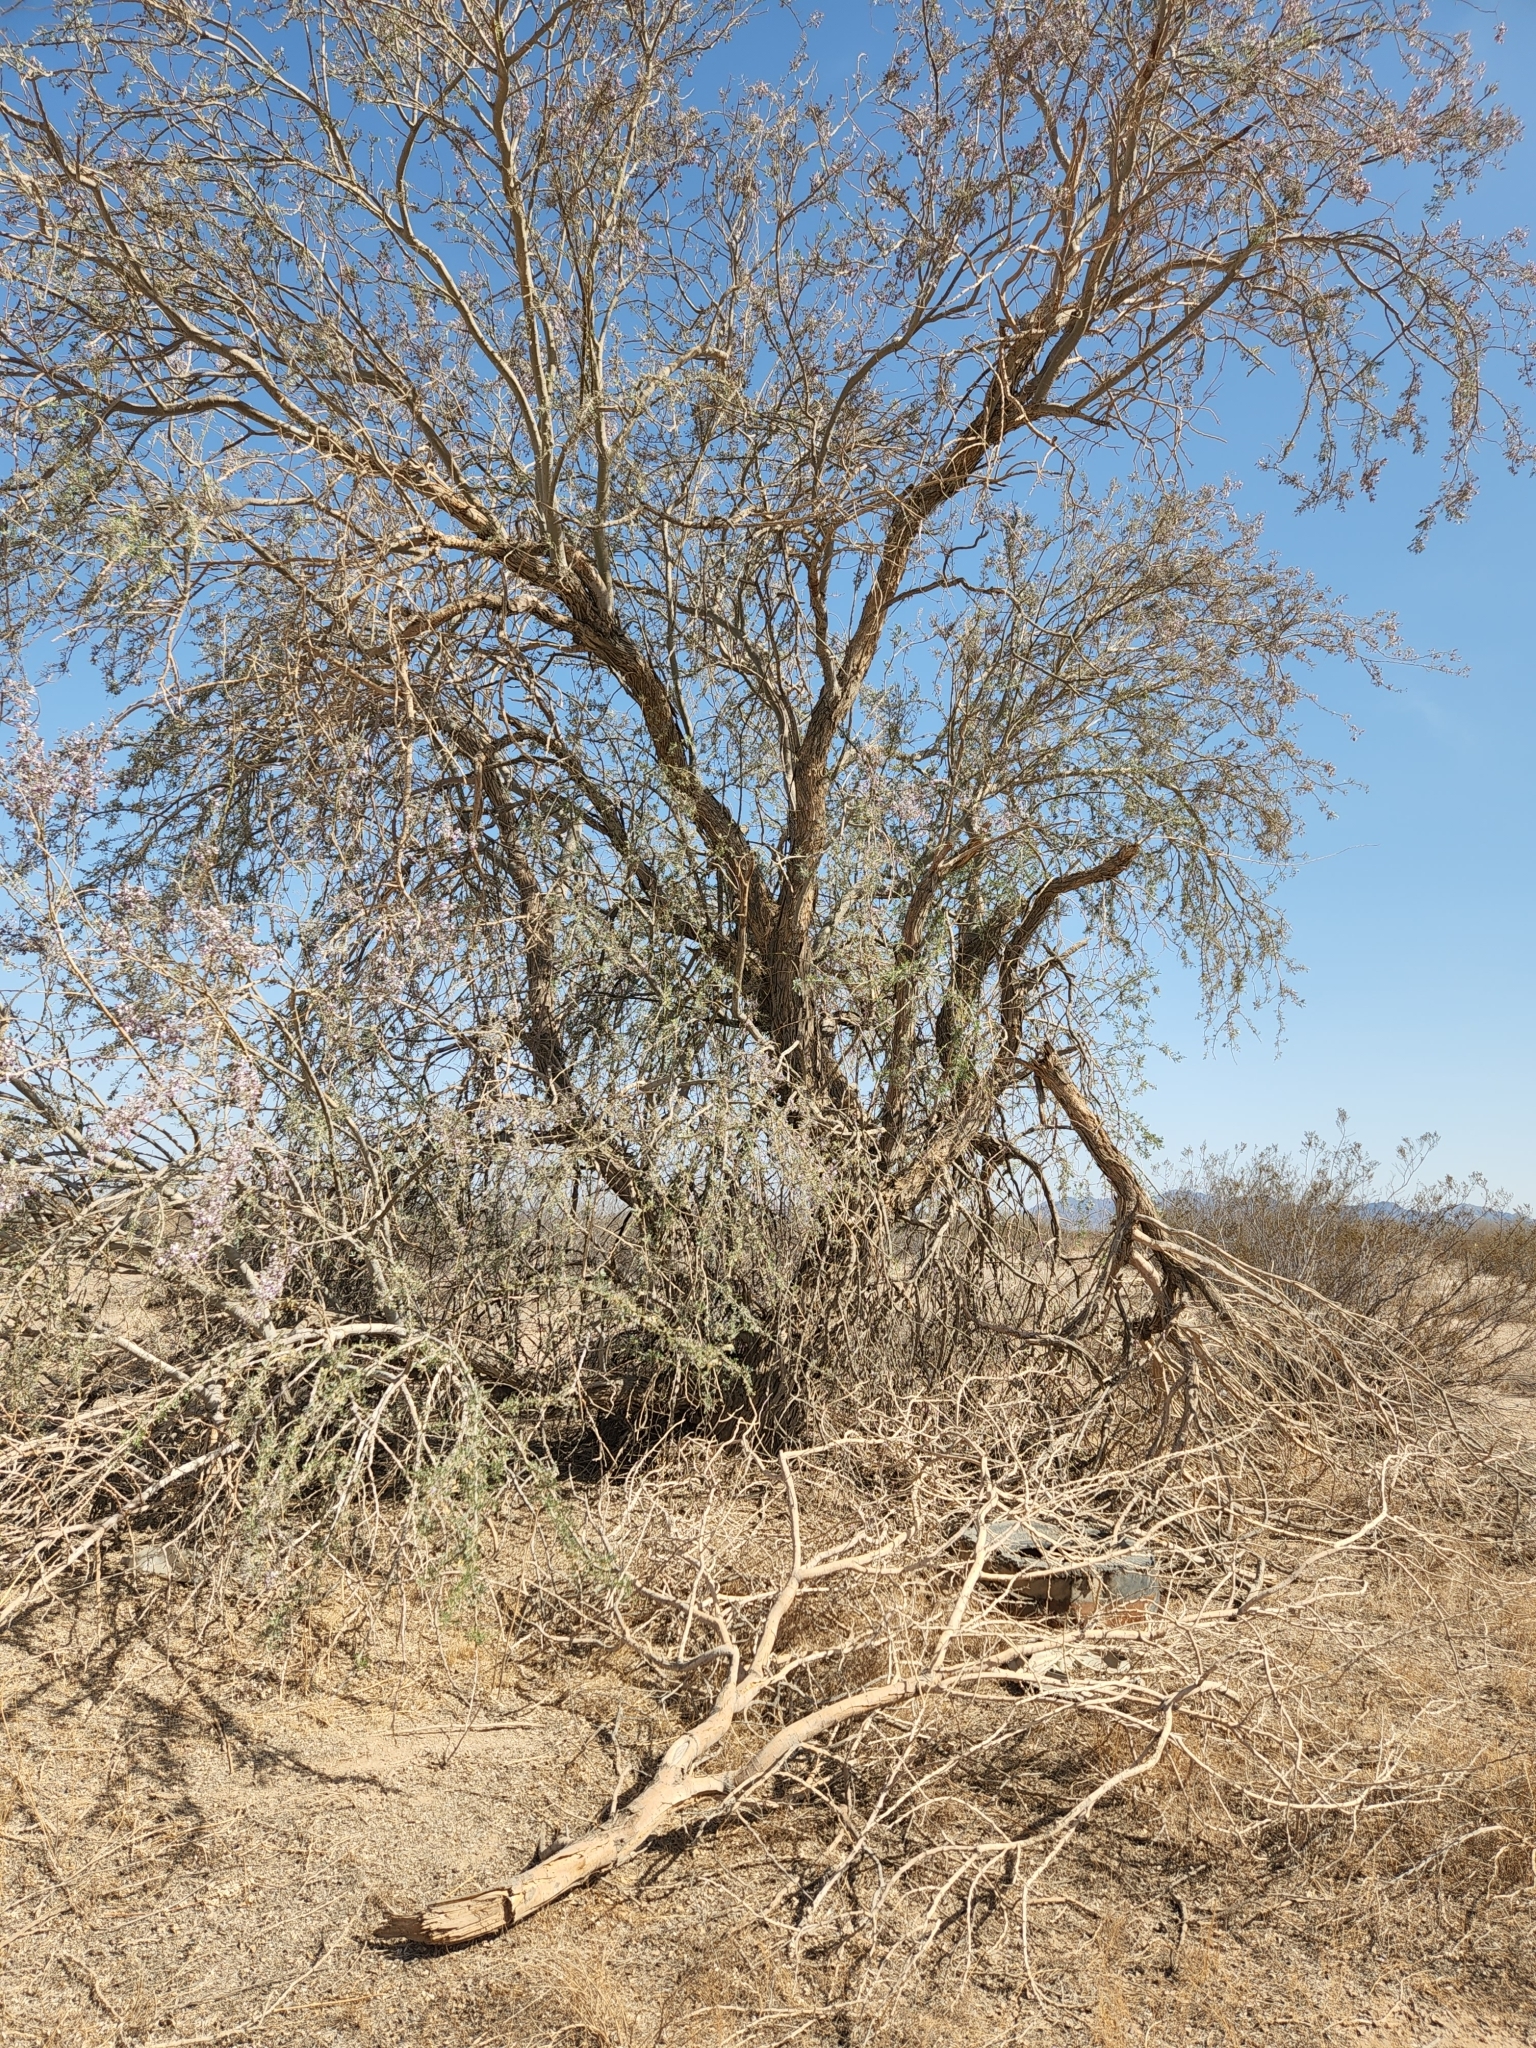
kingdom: Plantae
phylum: Tracheophyta
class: Magnoliopsida
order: Fabales
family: Fabaceae
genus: Olneya
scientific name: Olneya tesota
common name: Desert ironwood
